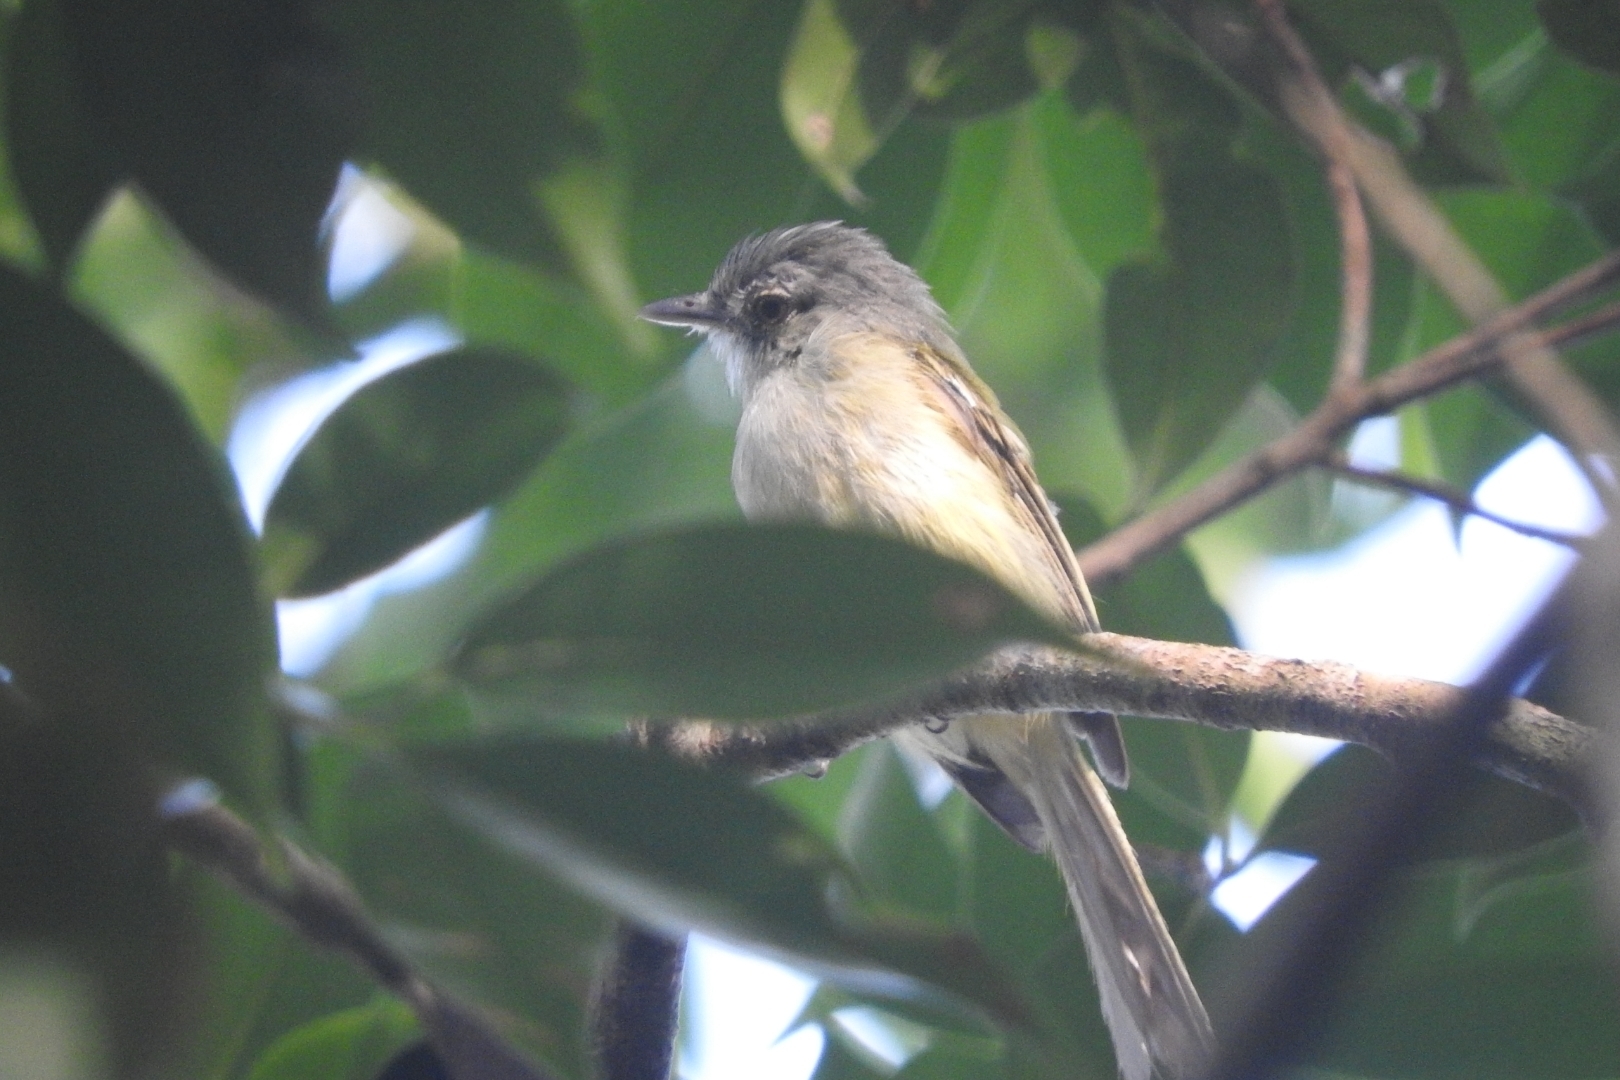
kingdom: Animalia
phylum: Chordata
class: Aves
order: Passeriformes
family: Tyrannidae
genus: Tolmomyias
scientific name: Tolmomyias sulphurescens
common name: Yellow-olive flycatcher
